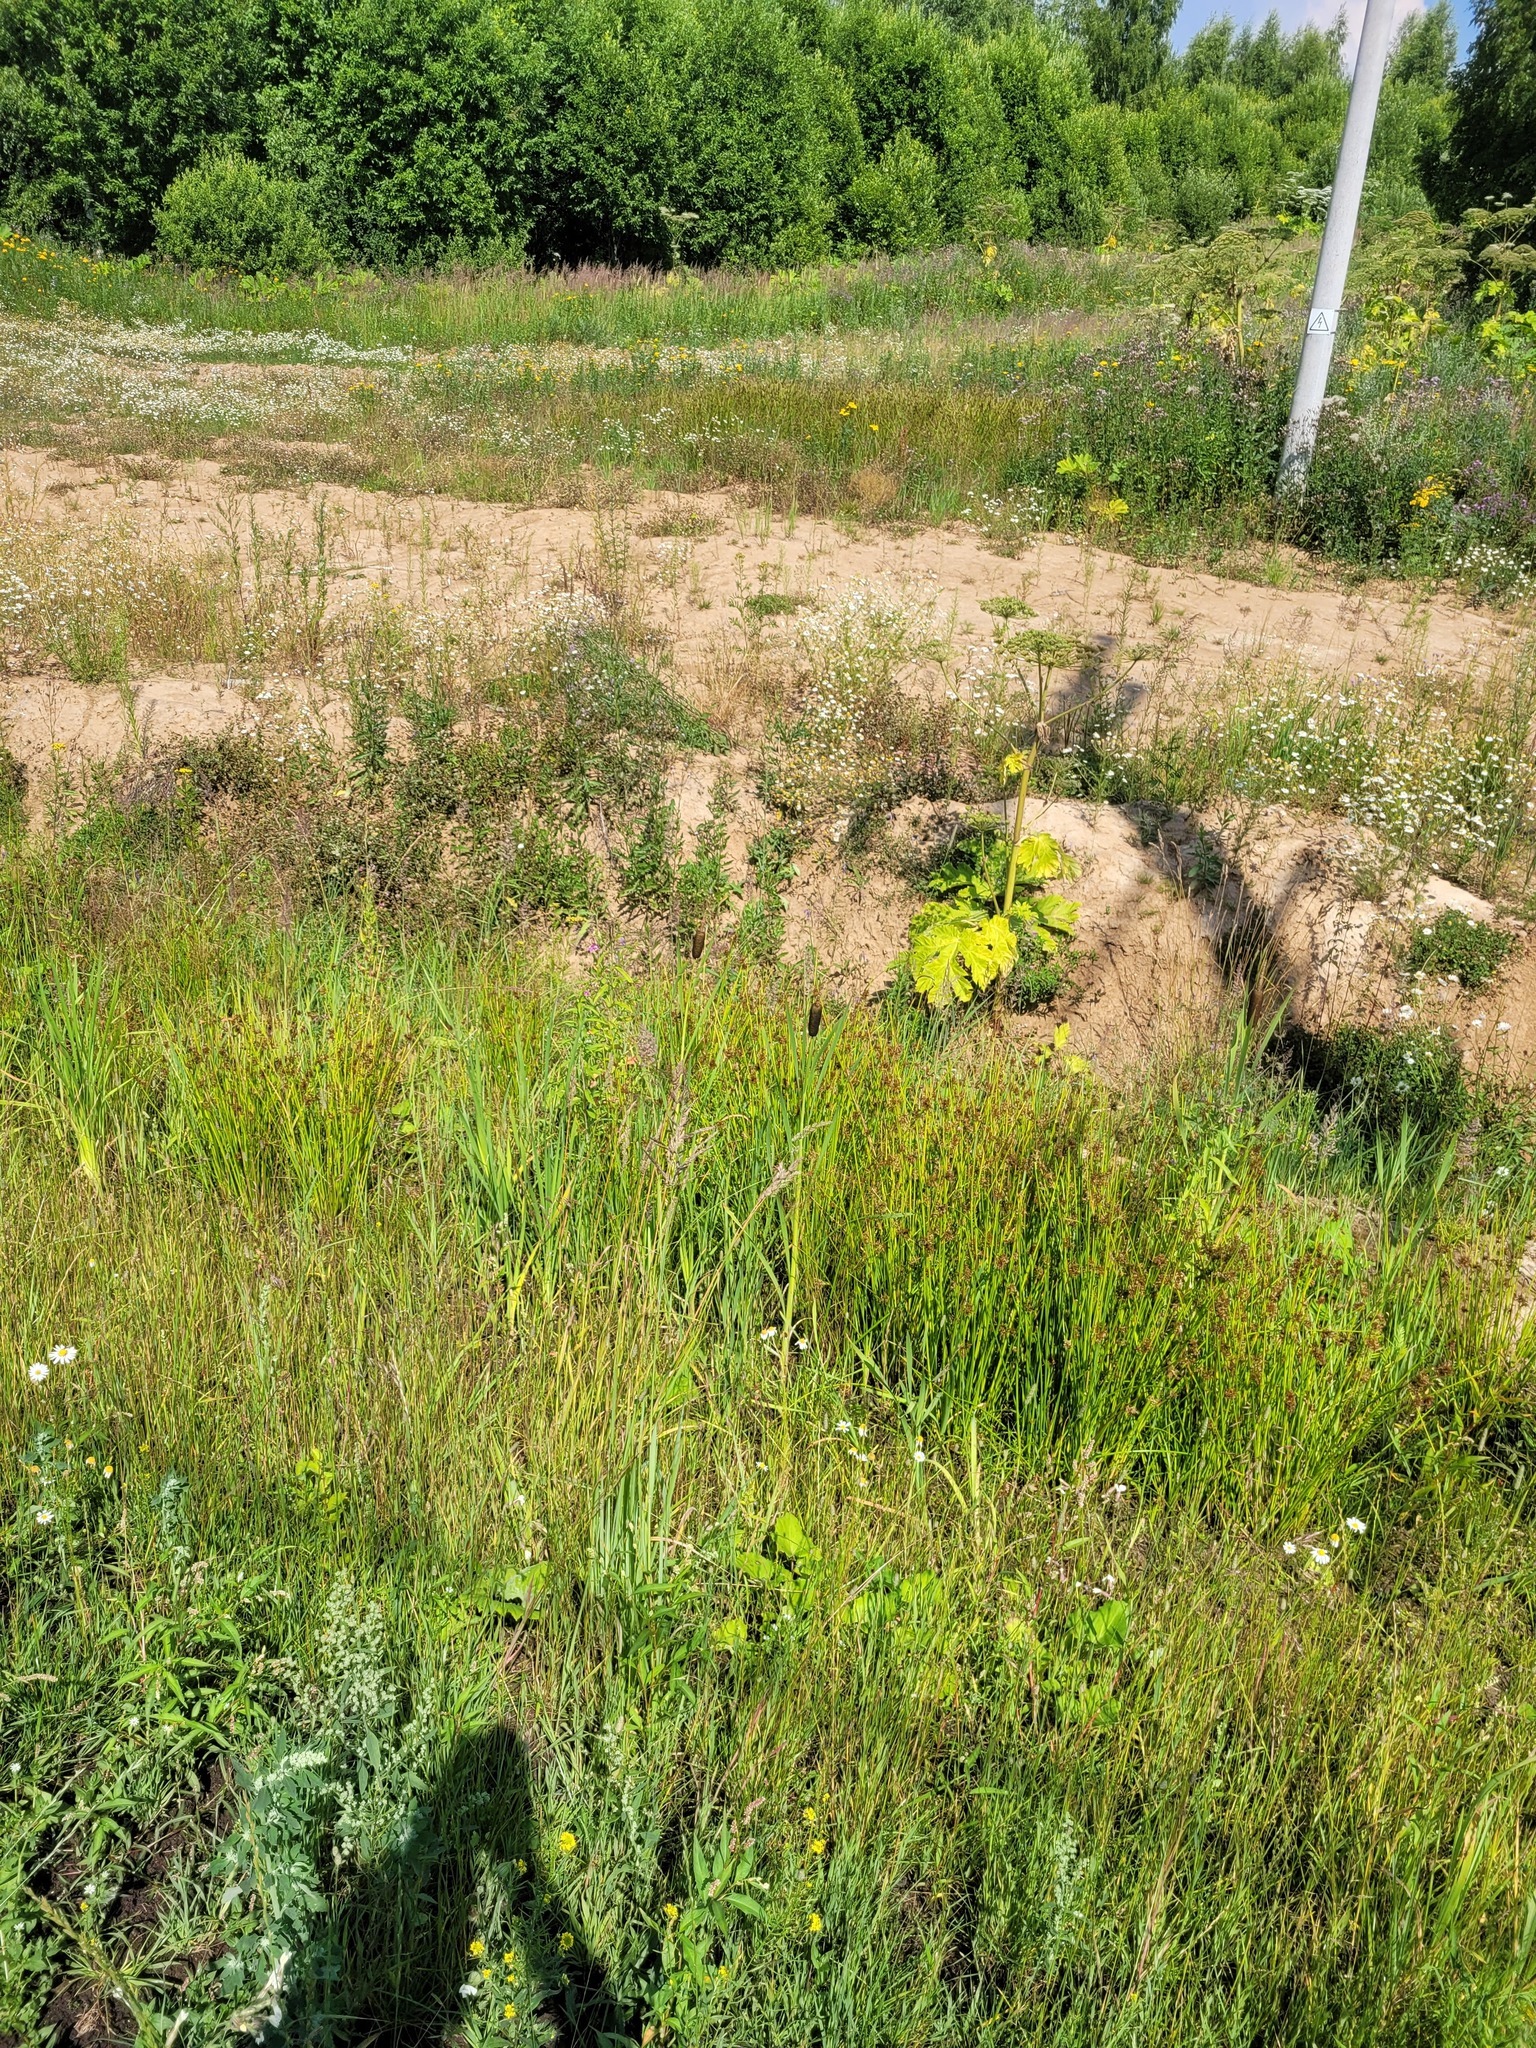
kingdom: Plantae
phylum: Tracheophyta
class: Liliopsida
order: Poales
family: Juncaceae
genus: Juncus
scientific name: Juncus effusus
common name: Soft rush
